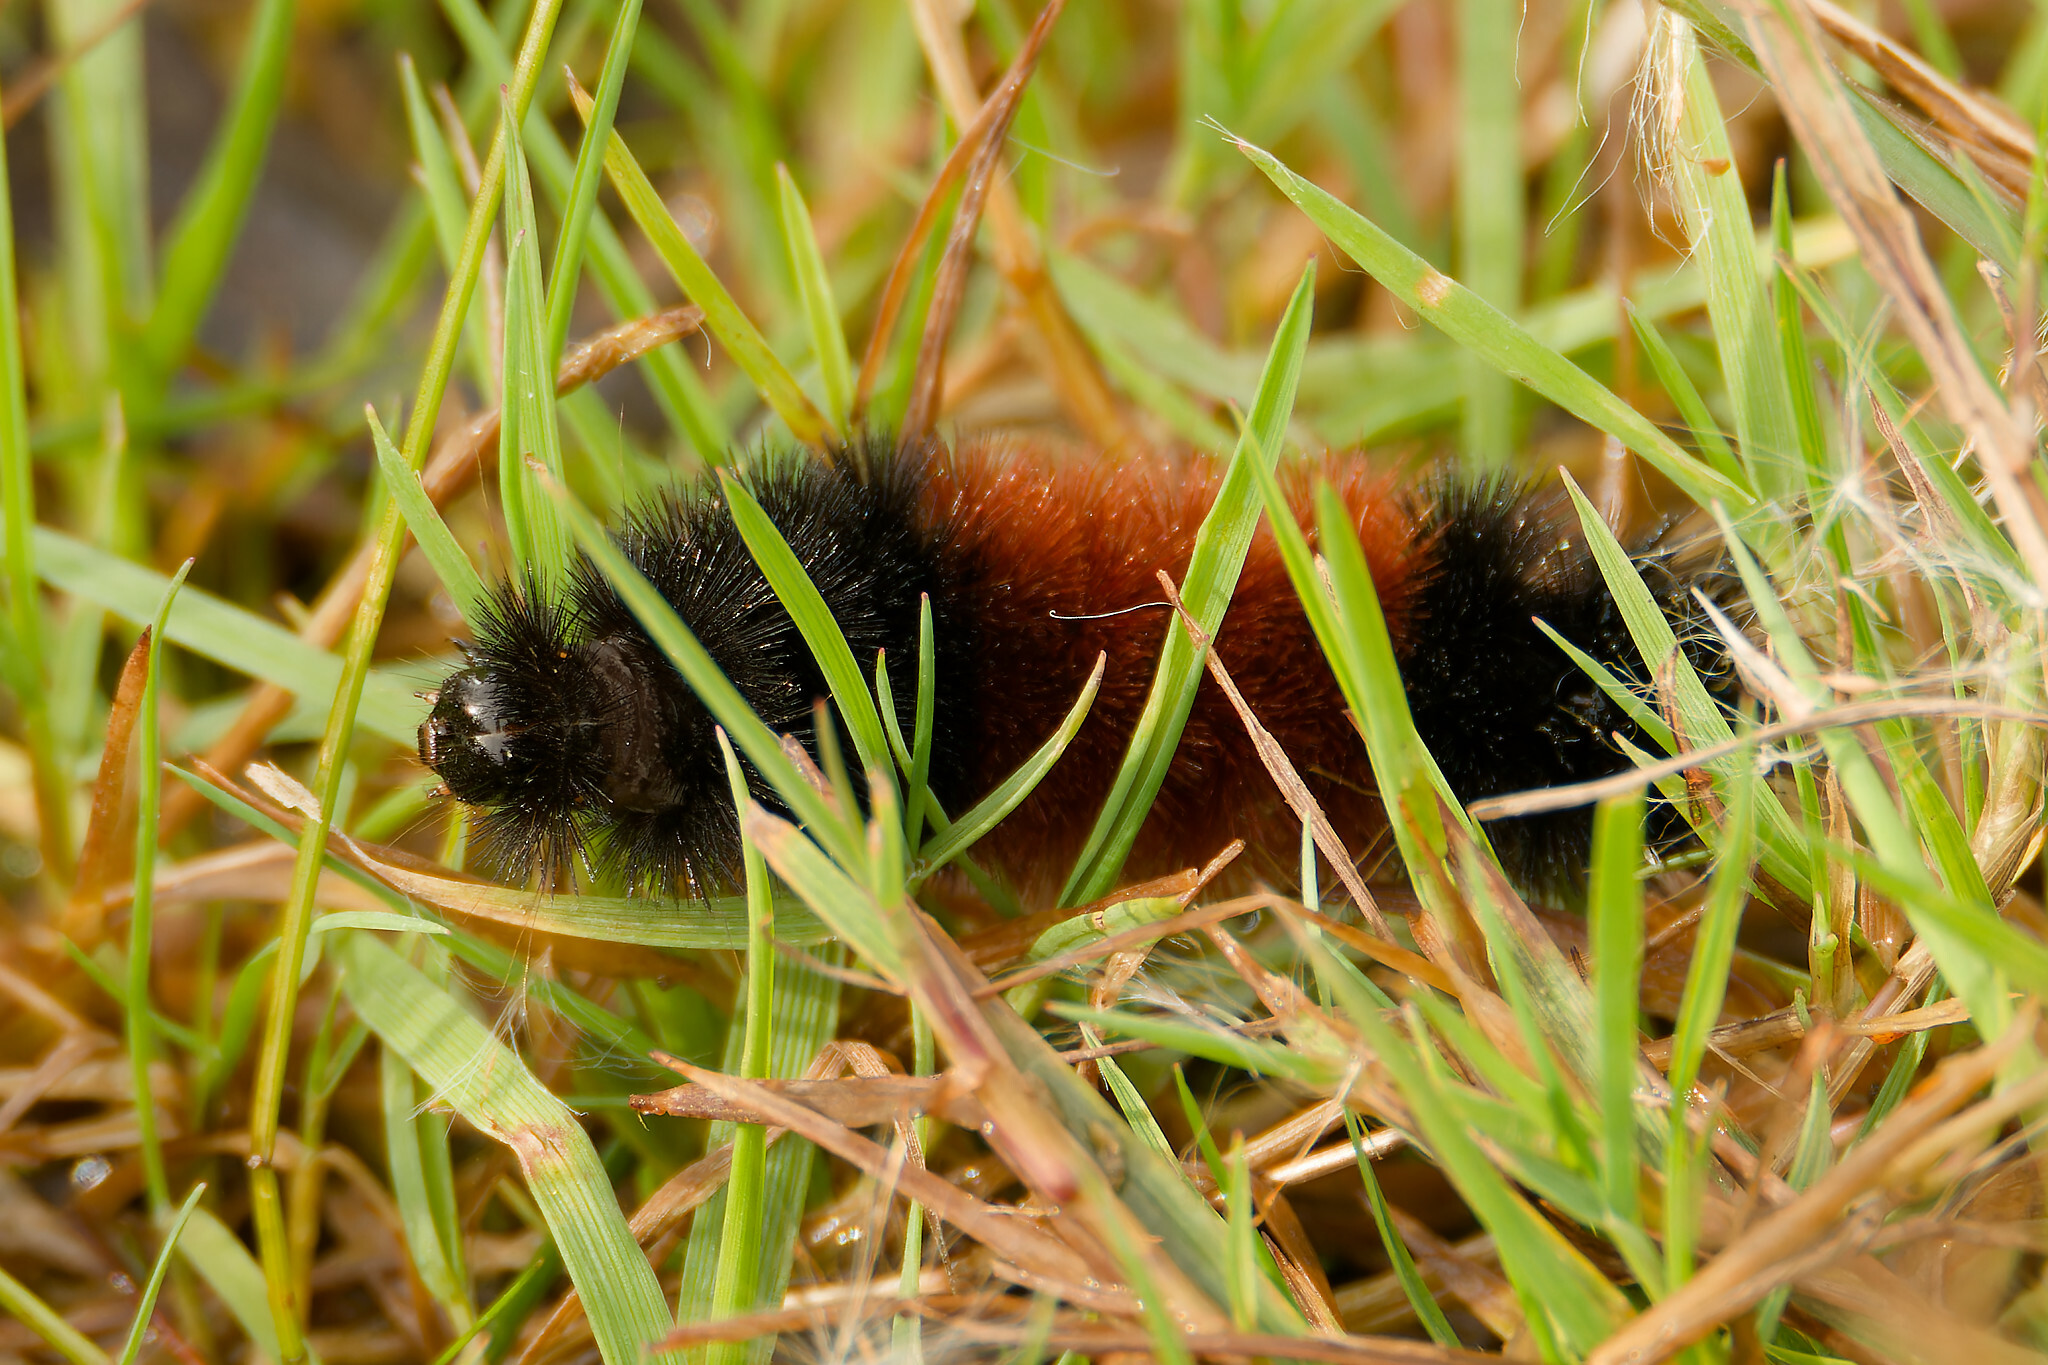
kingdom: Animalia
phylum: Arthropoda
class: Insecta
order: Lepidoptera
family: Erebidae
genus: Pyrrharctia
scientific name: Pyrrharctia isabella
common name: Isabella tiger moth
